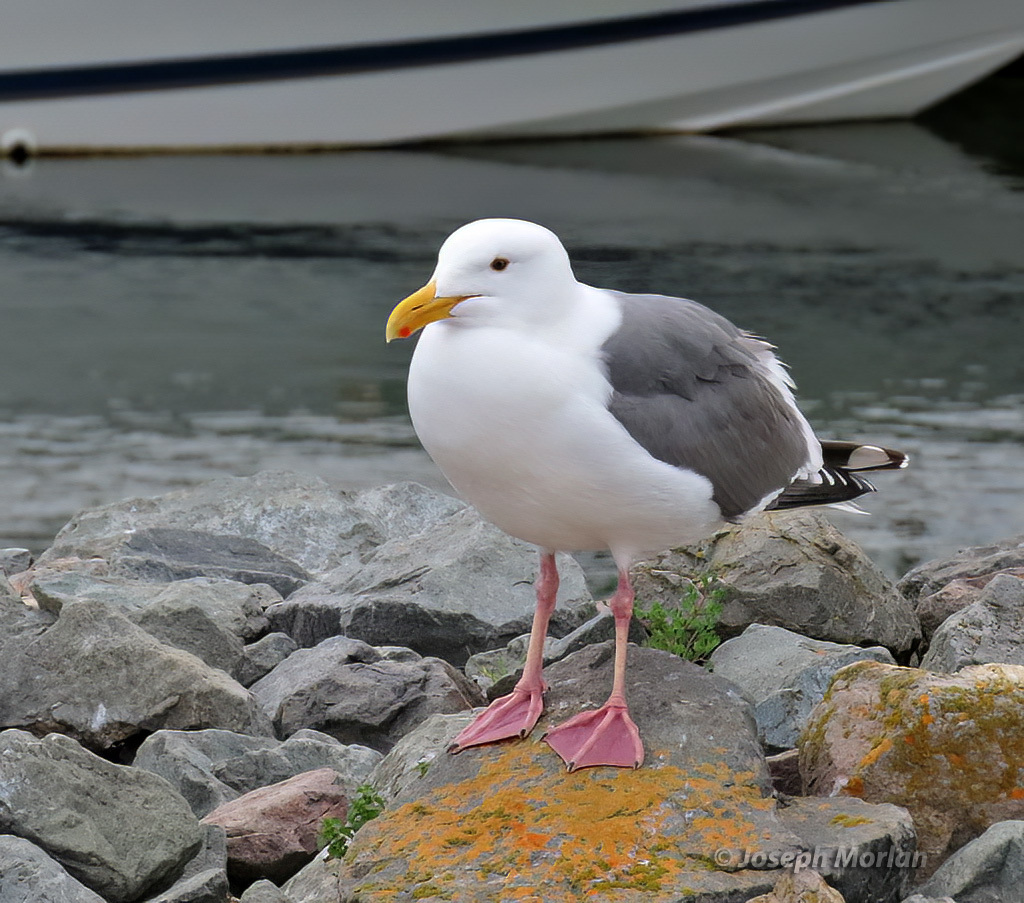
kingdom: Animalia
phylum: Chordata
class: Aves
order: Charadriiformes
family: Laridae
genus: Larus
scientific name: Larus occidentalis
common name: Western gull
